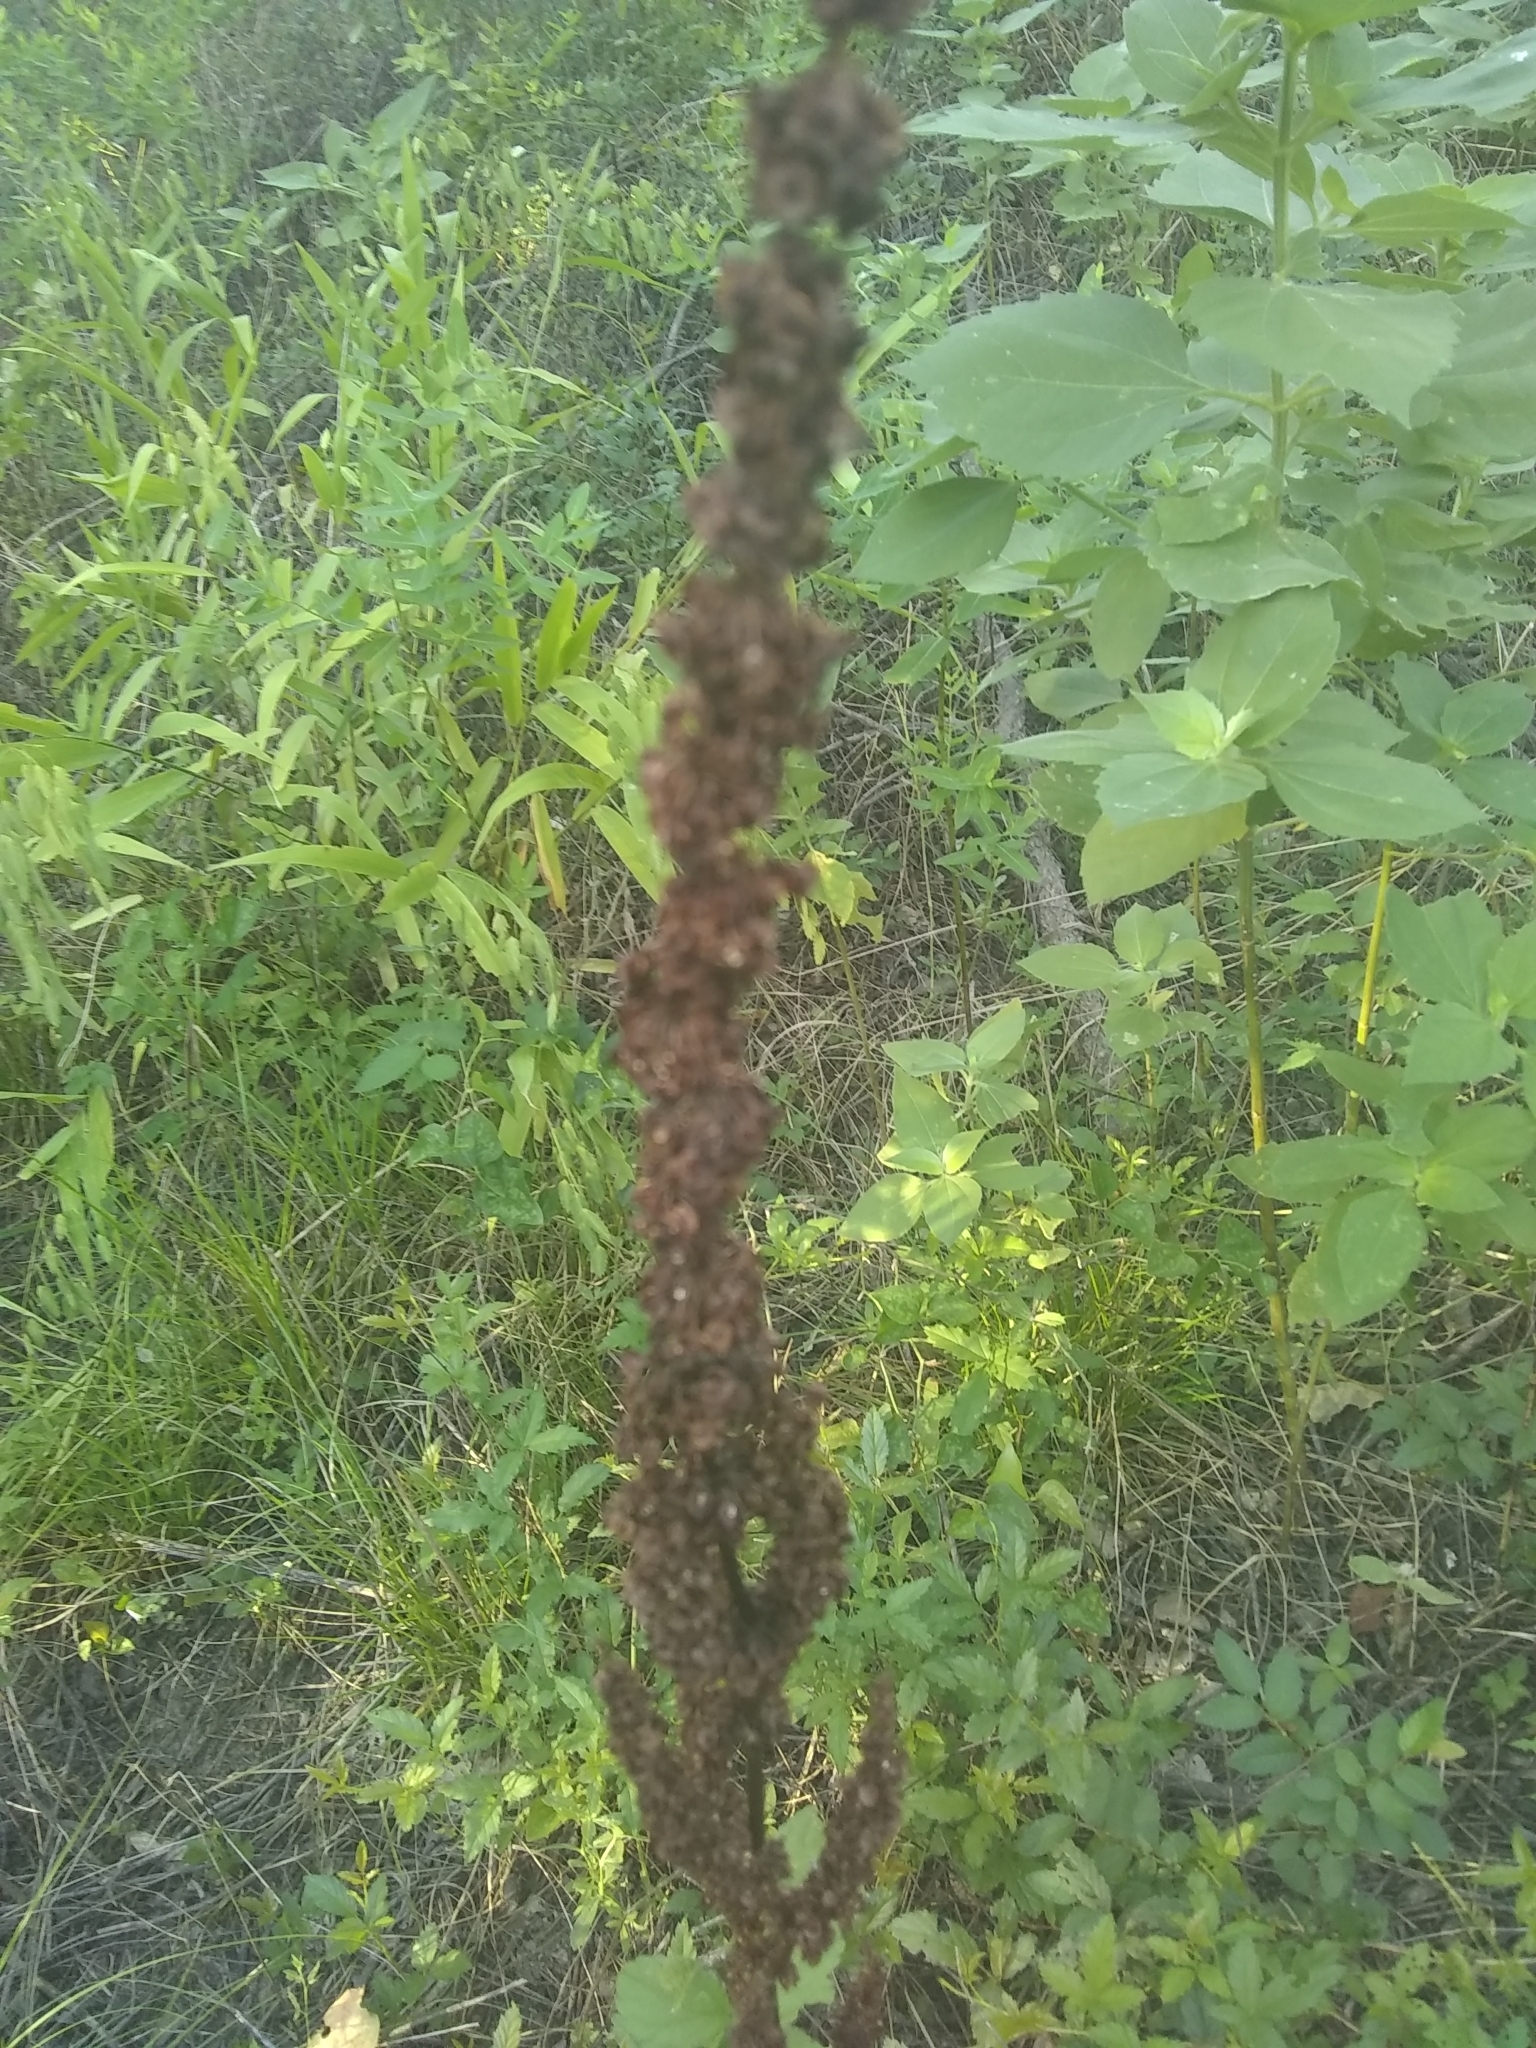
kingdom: Plantae
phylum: Tracheophyta
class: Magnoliopsida
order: Caryophyllales
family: Polygonaceae
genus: Rumex
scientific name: Rumex crispus
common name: Curled dock
